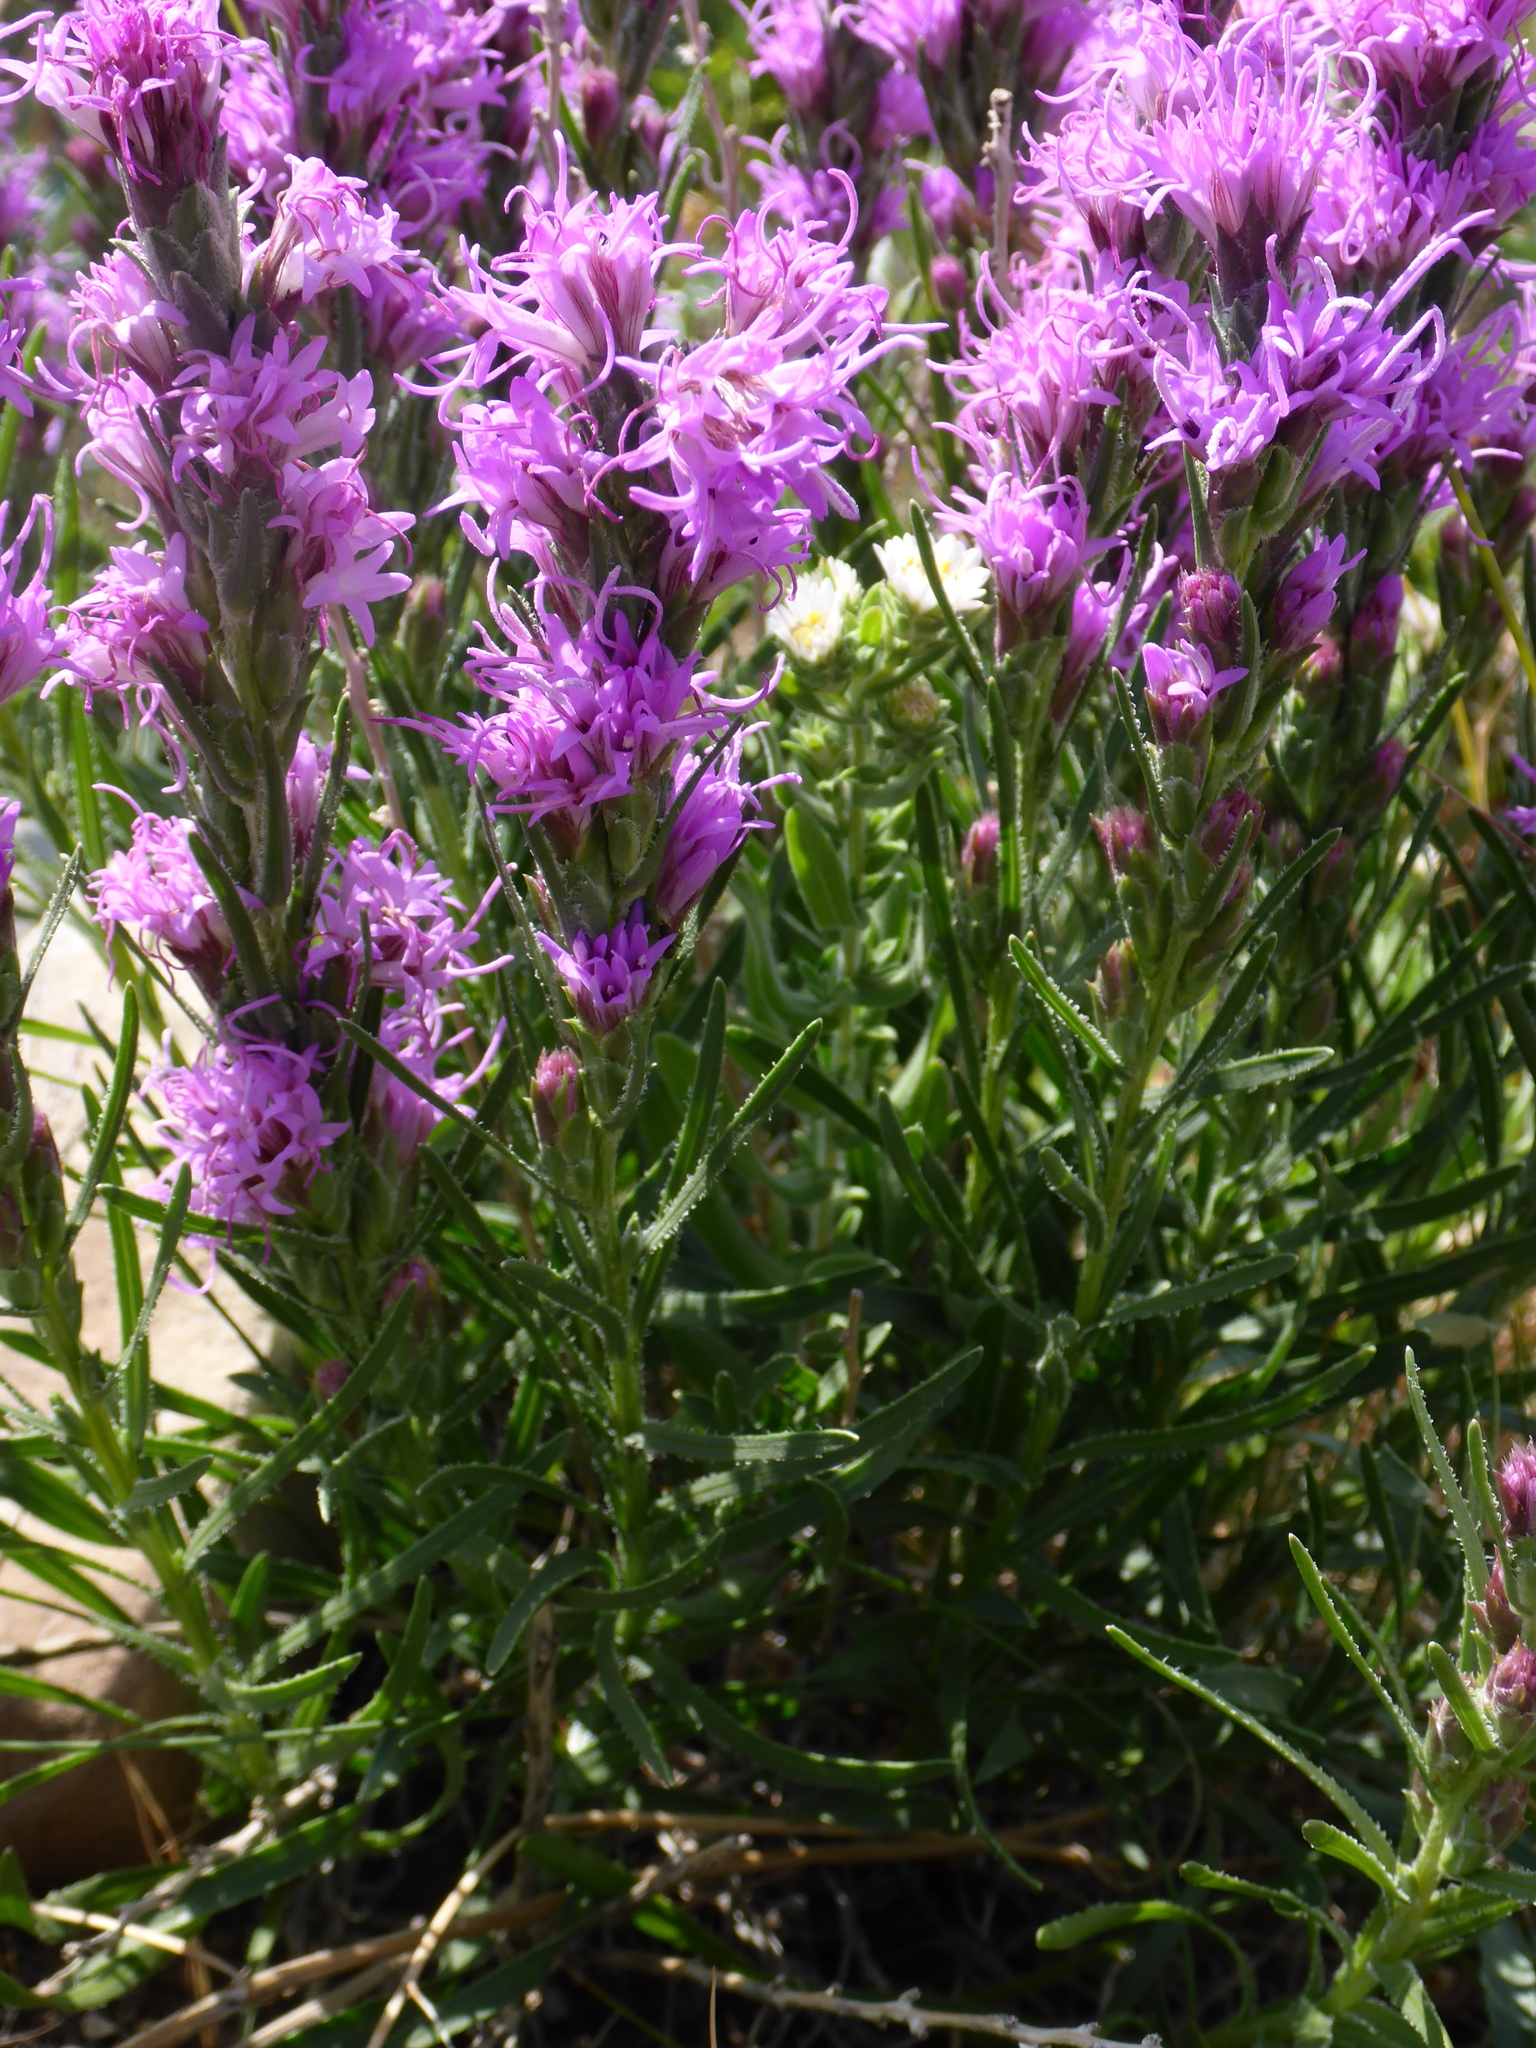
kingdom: Plantae
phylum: Tracheophyta
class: Magnoliopsida
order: Asterales
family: Asteraceae
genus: Liatris
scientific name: Liatris punctata
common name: Dotted gayfeather
